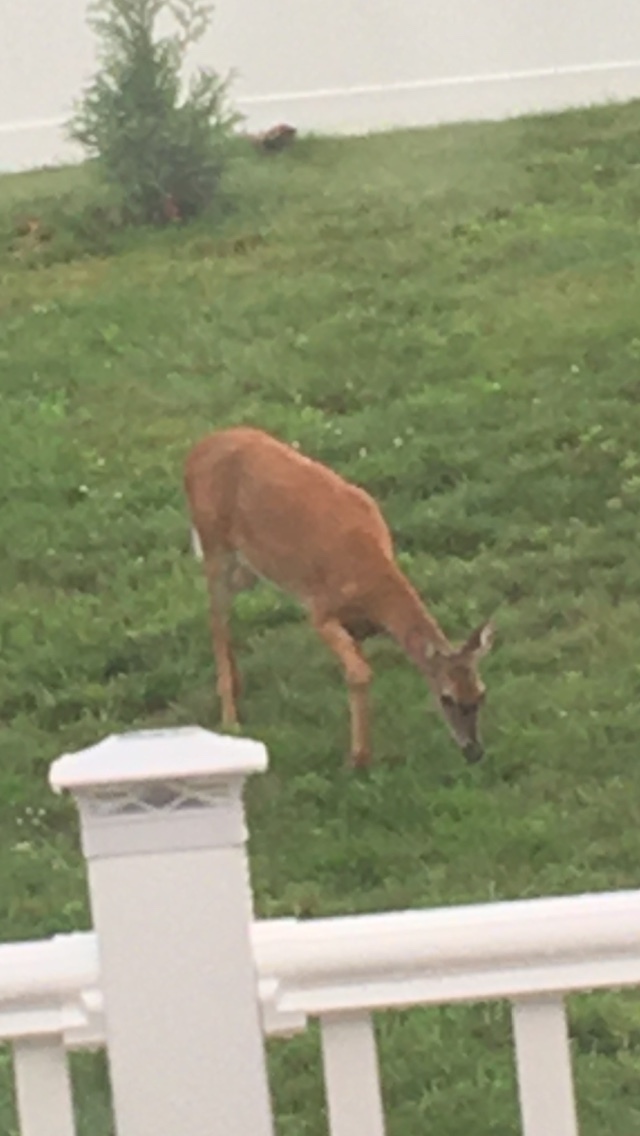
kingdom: Animalia
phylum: Chordata
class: Mammalia
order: Artiodactyla
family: Cervidae
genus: Odocoileus
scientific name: Odocoileus virginianus
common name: White-tailed deer
